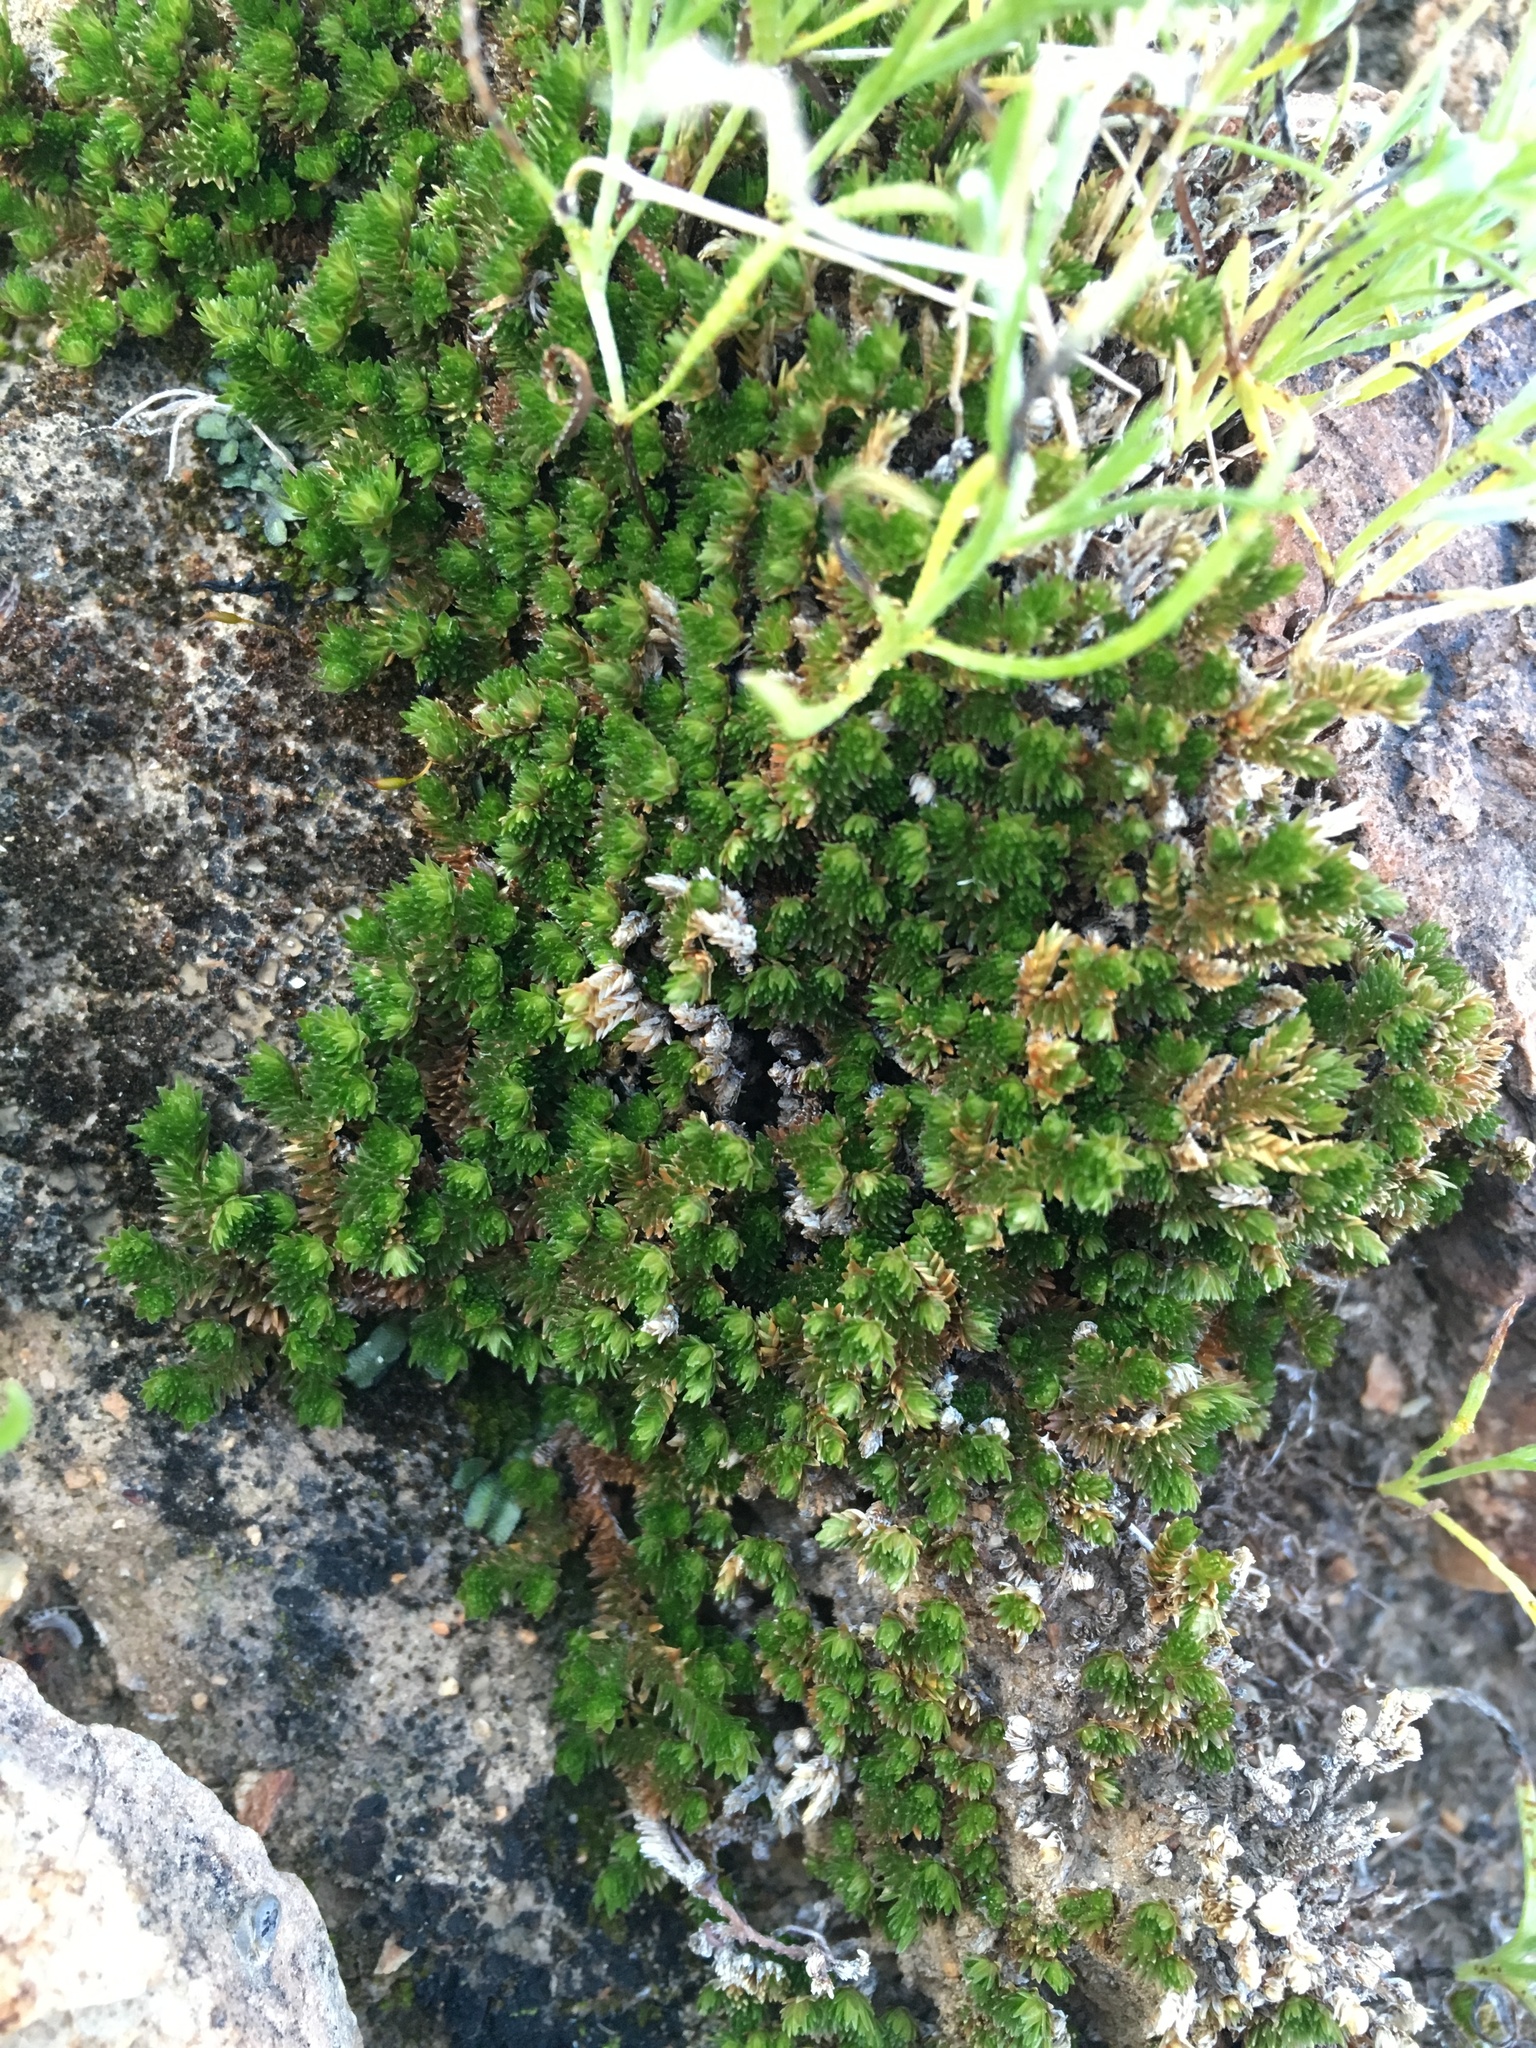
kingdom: Plantae
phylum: Tracheophyta
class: Lycopodiopsida
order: Selaginellales
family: Selaginellaceae
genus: Selaginella
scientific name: Selaginella eremophila
